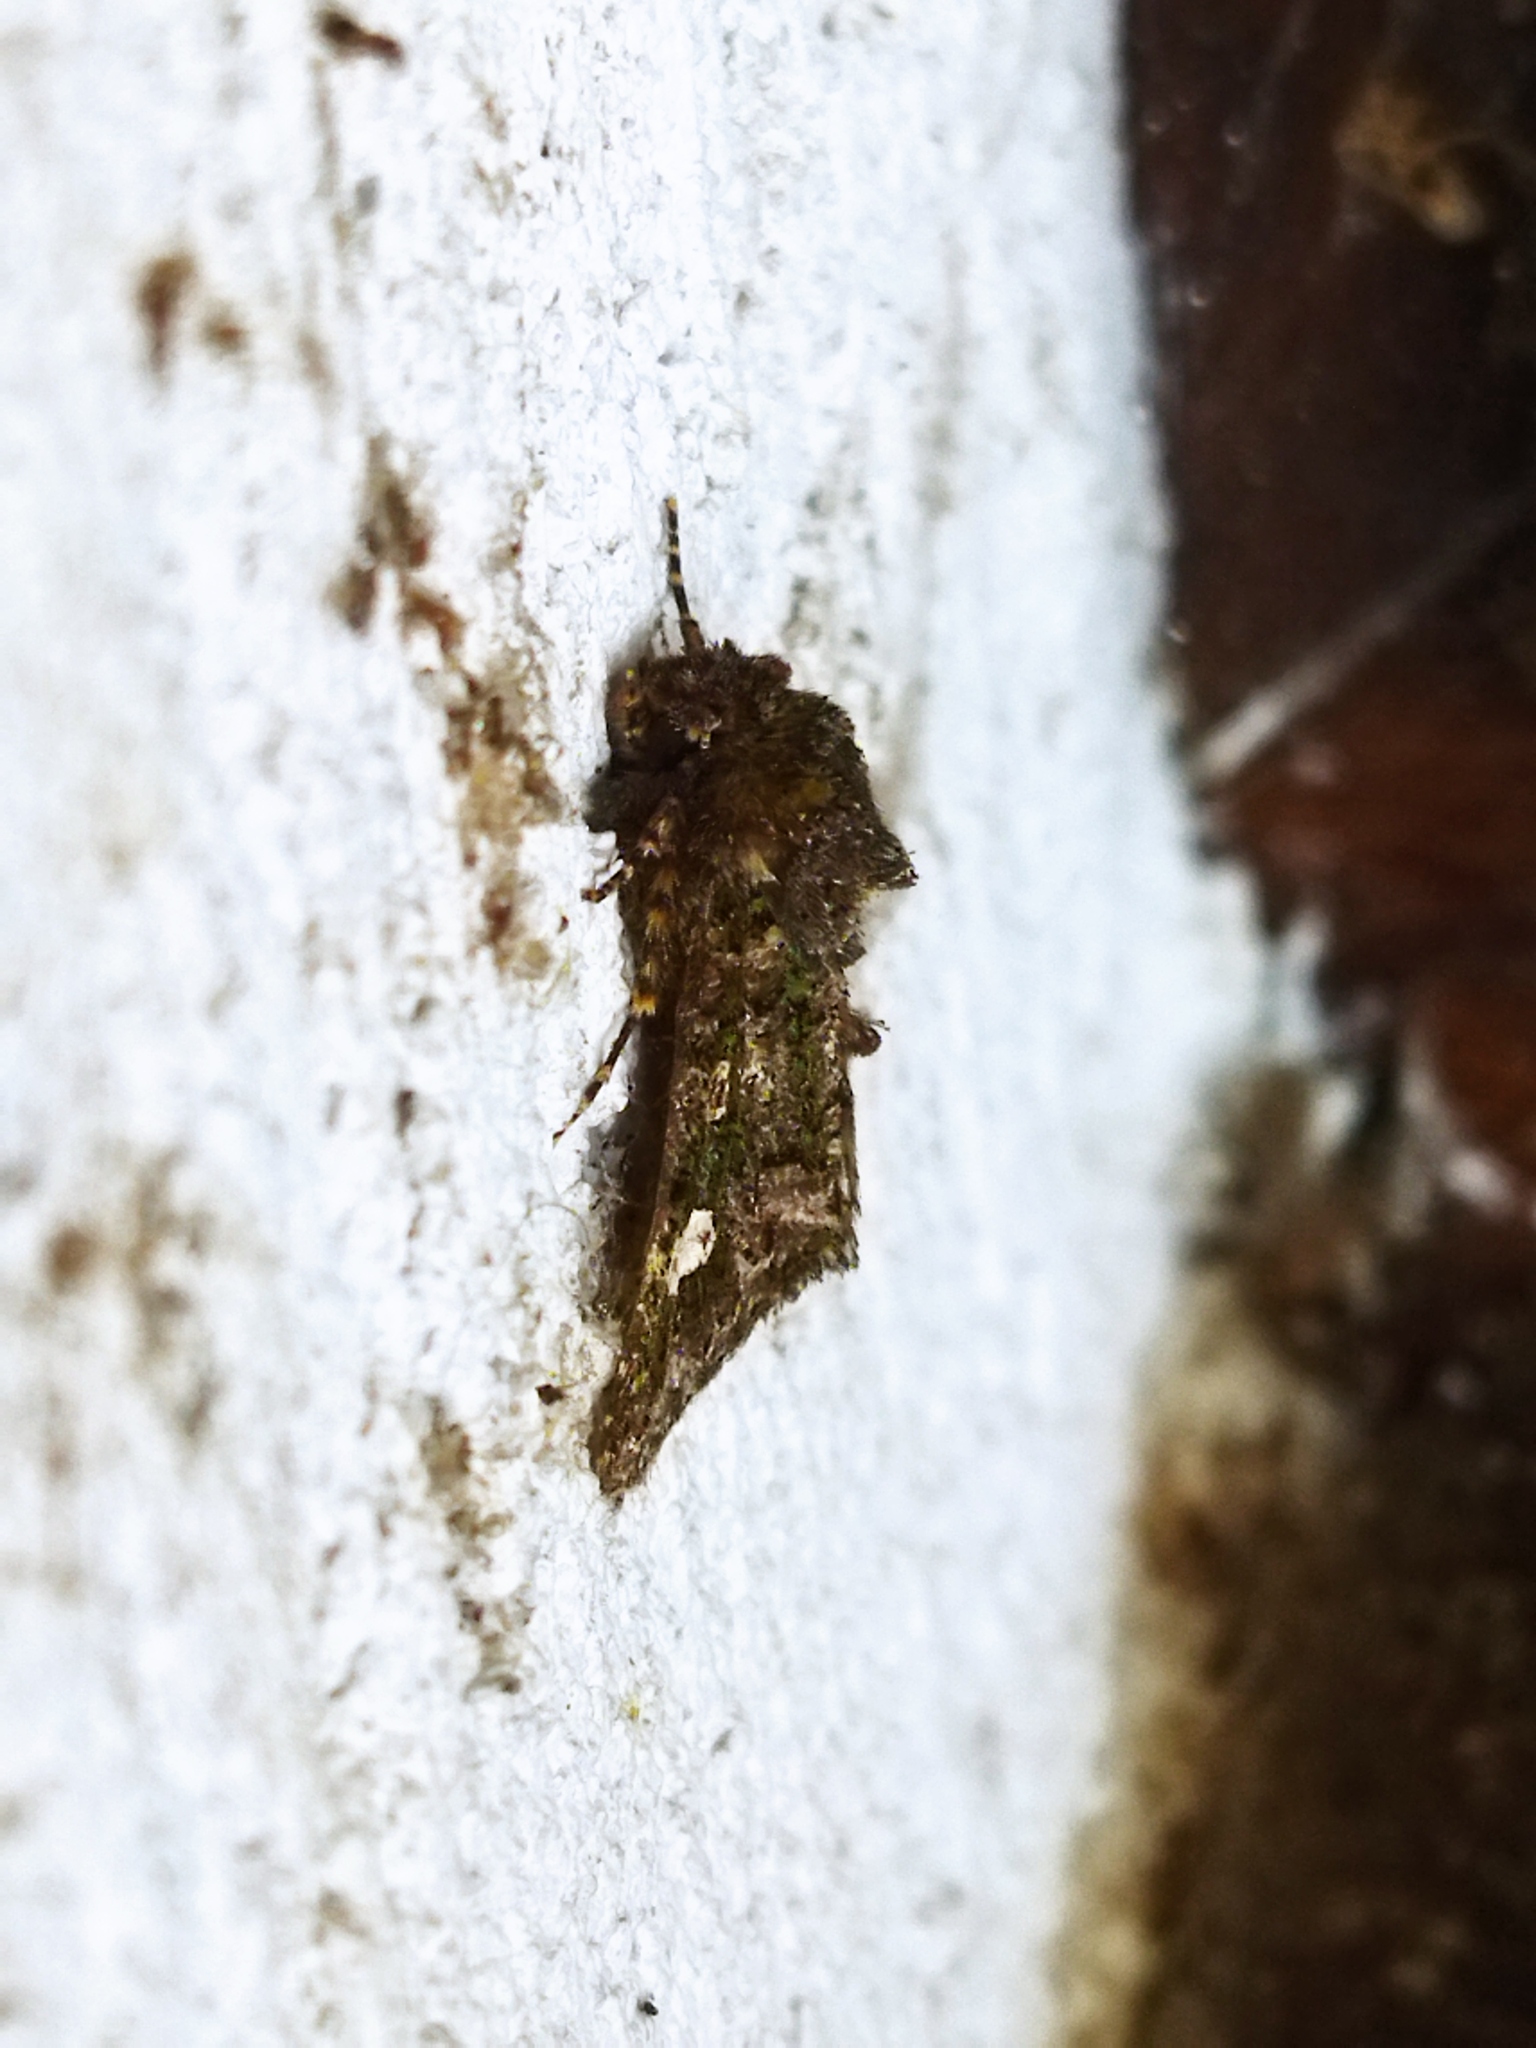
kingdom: Animalia
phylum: Arthropoda
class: Insecta
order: Lepidoptera
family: Noctuidae
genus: Valeria
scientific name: Valeria oleagina
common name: Green-brindled dot
